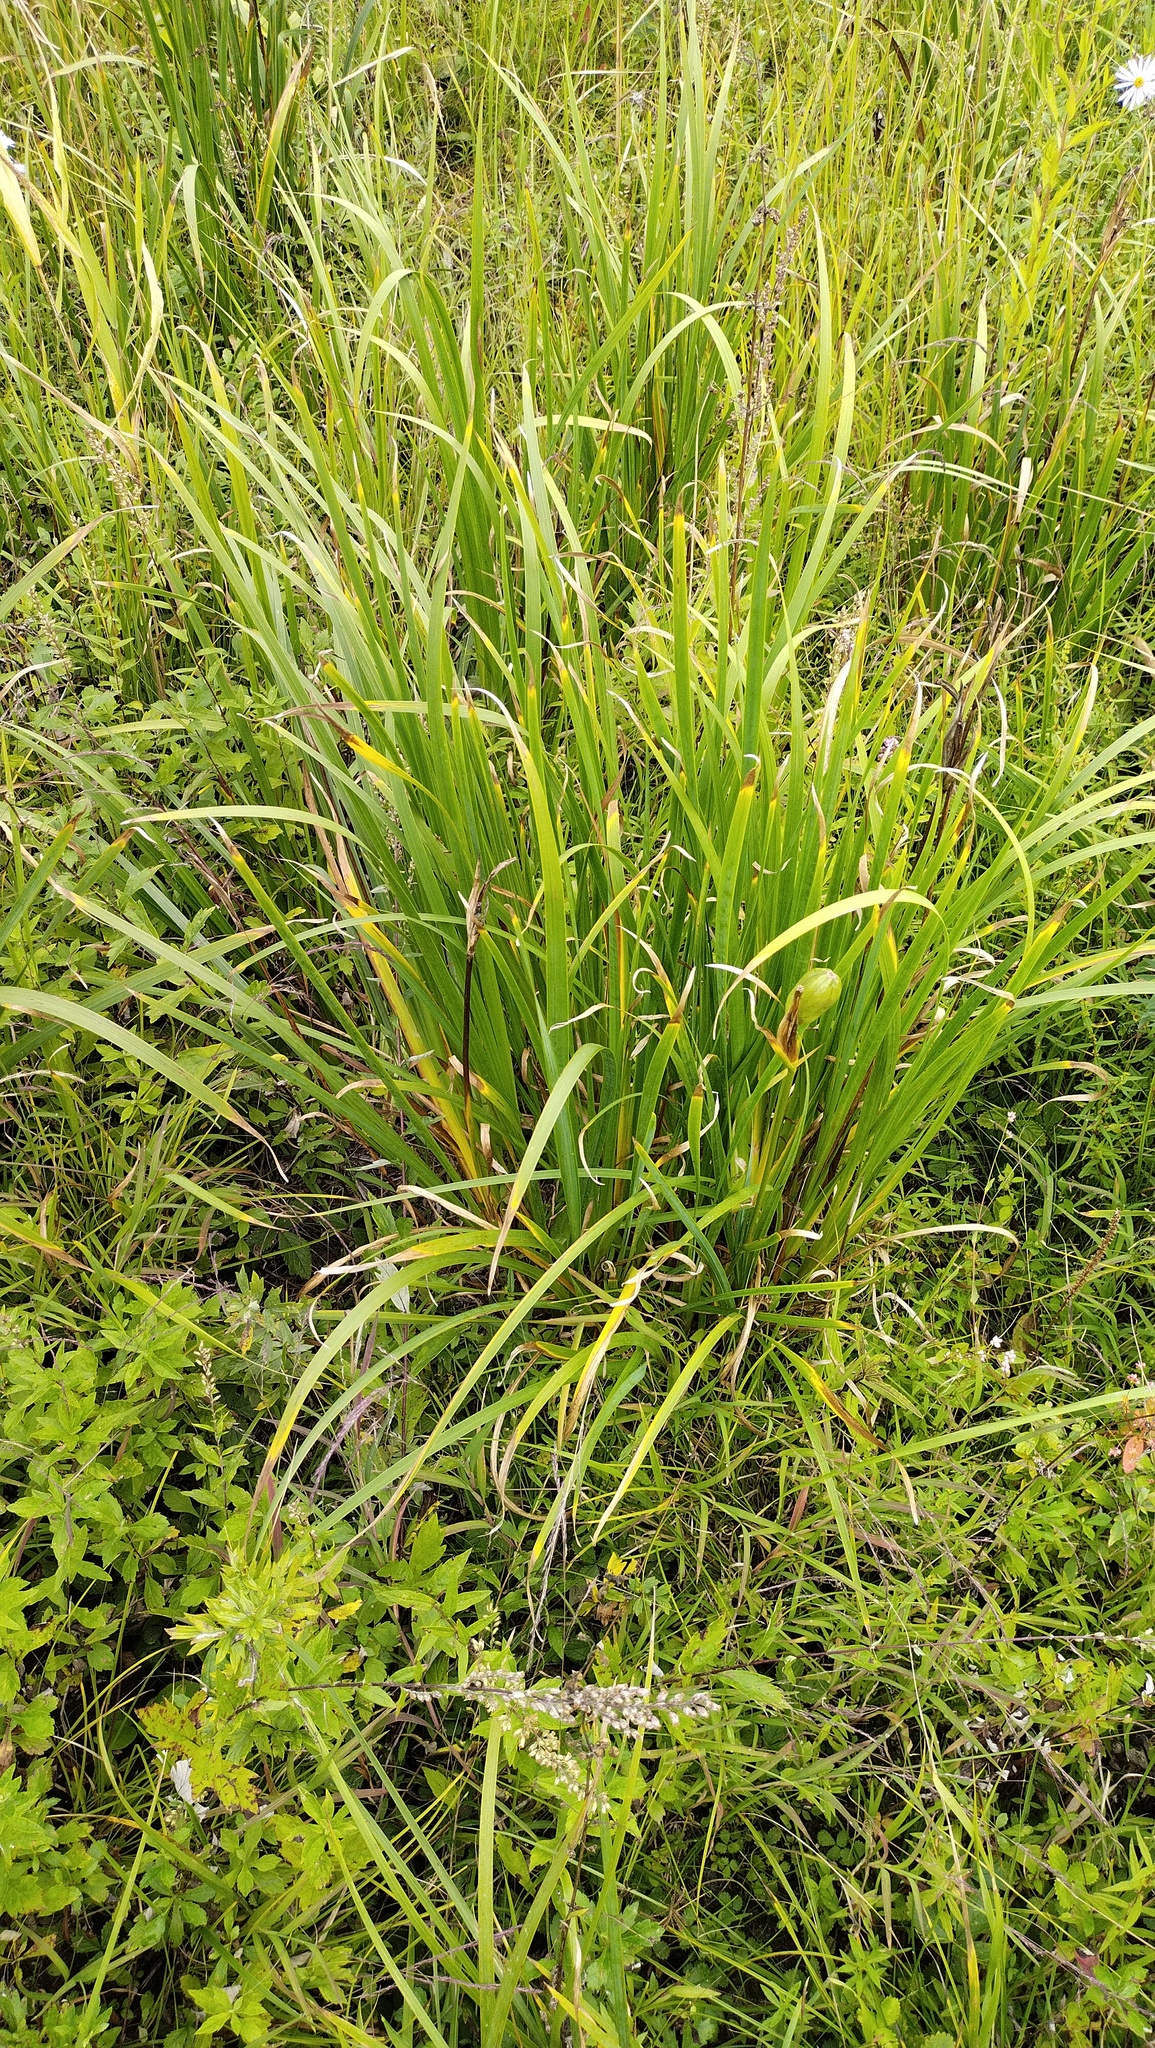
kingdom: Plantae
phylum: Tracheophyta
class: Liliopsida
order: Asparagales
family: Iridaceae
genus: Iris
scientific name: Iris ensata
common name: Beaked iris
